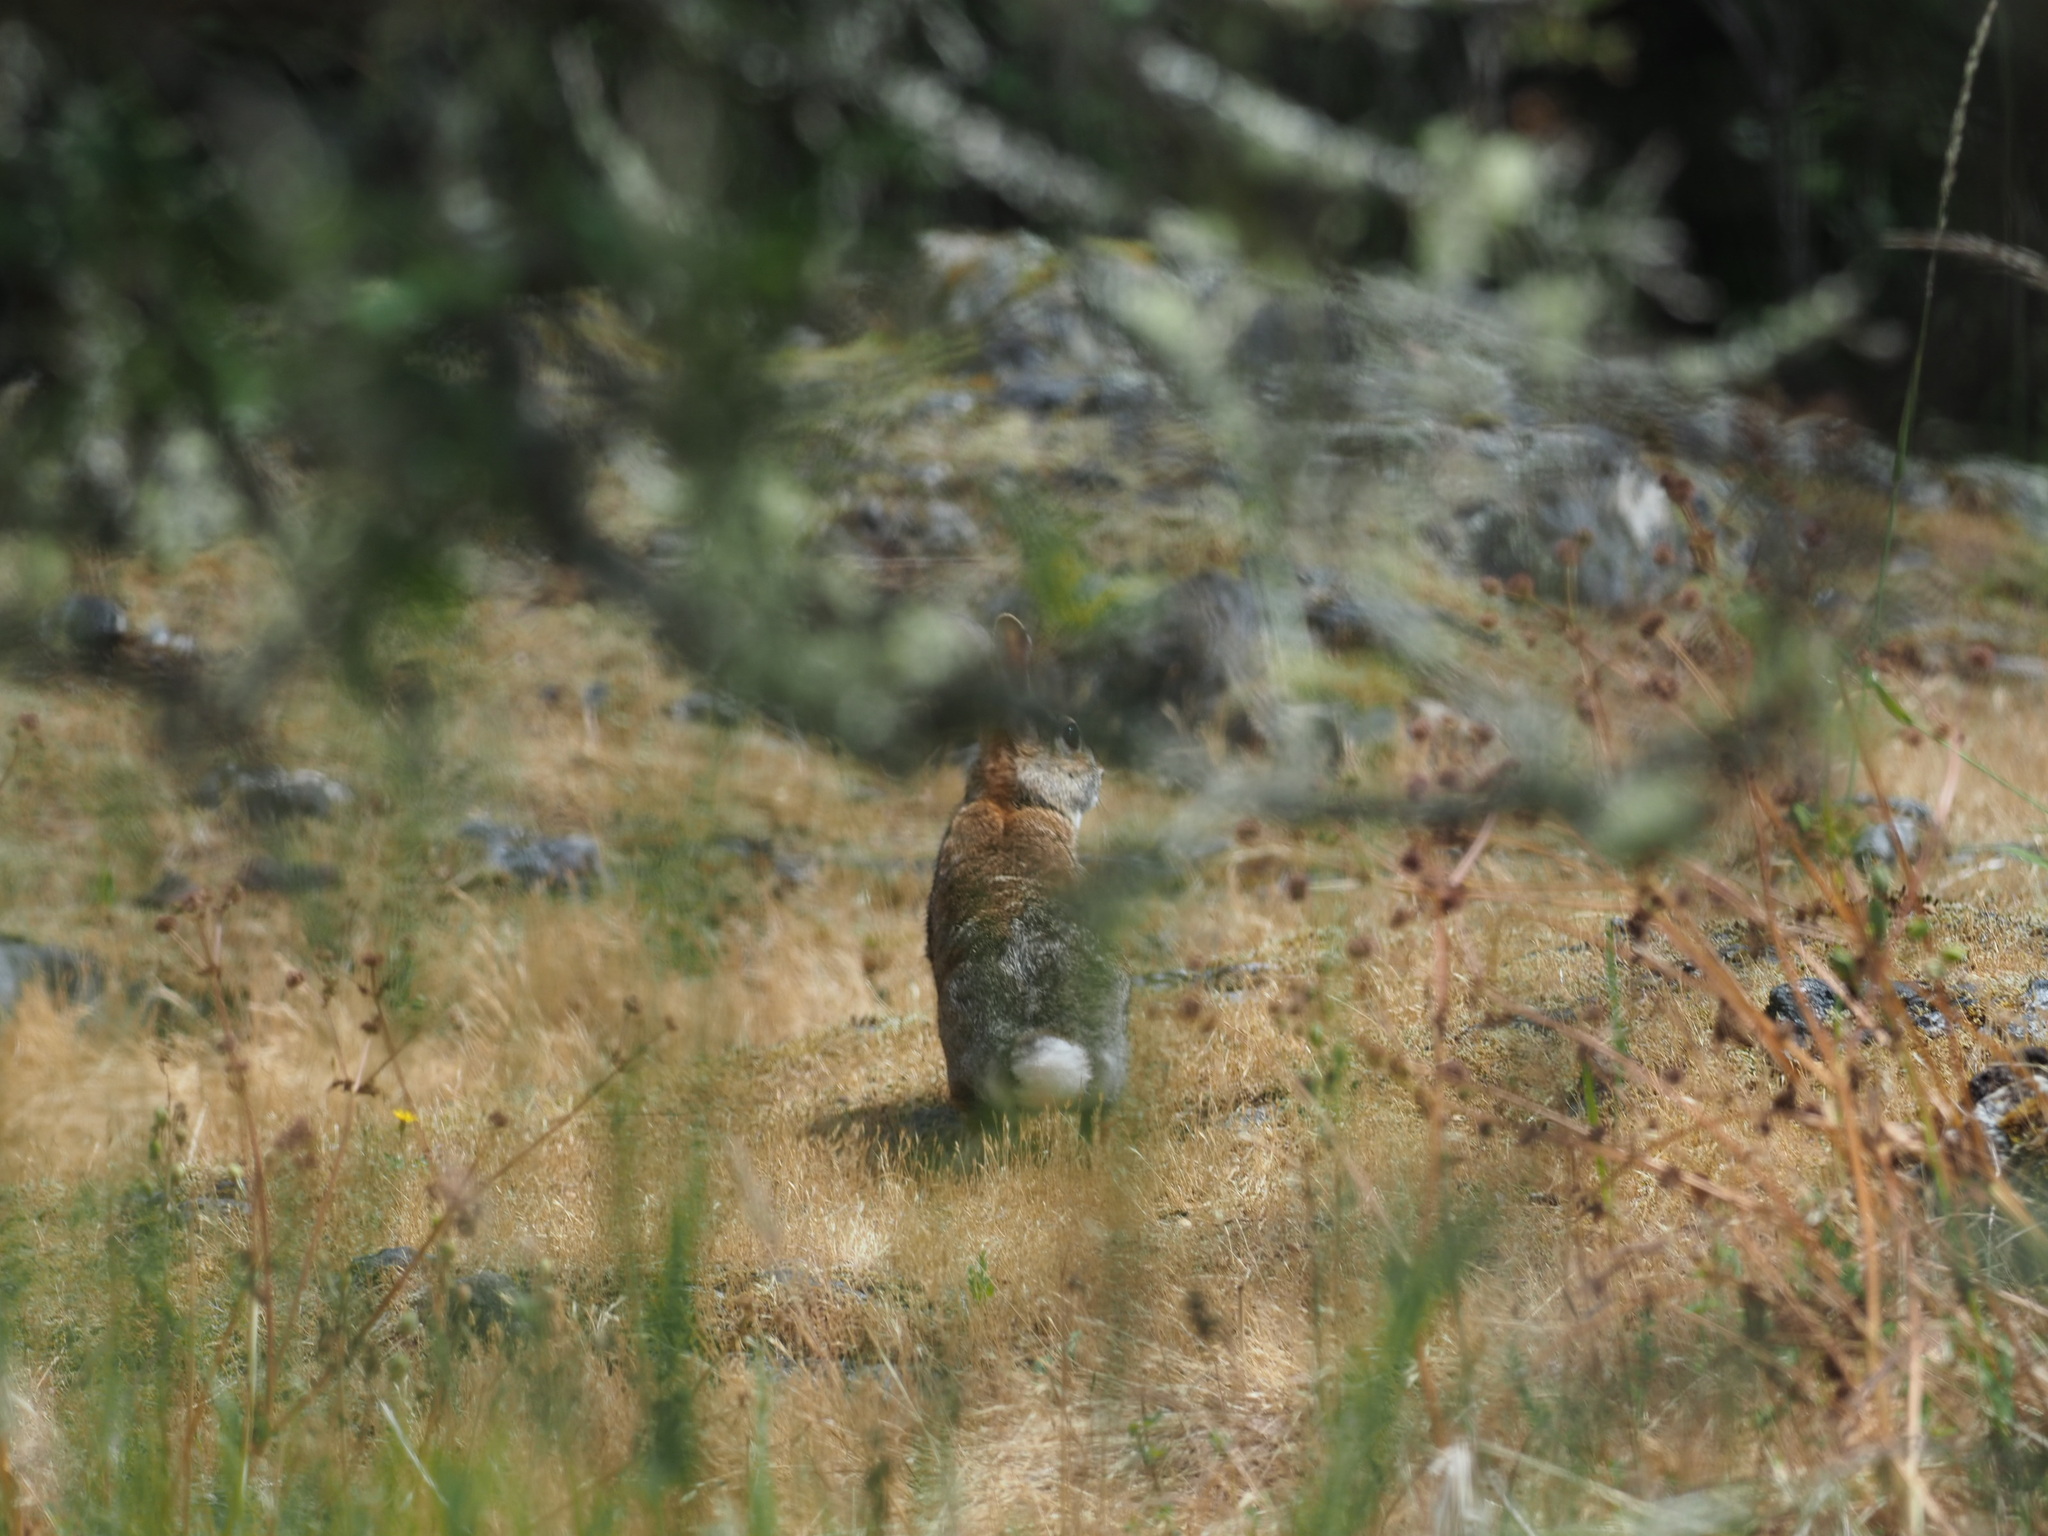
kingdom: Animalia
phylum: Chordata
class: Mammalia
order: Lagomorpha
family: Leporidae
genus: Sylvilagus
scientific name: Sylvilagus floridanus
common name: Eastern cottontail
